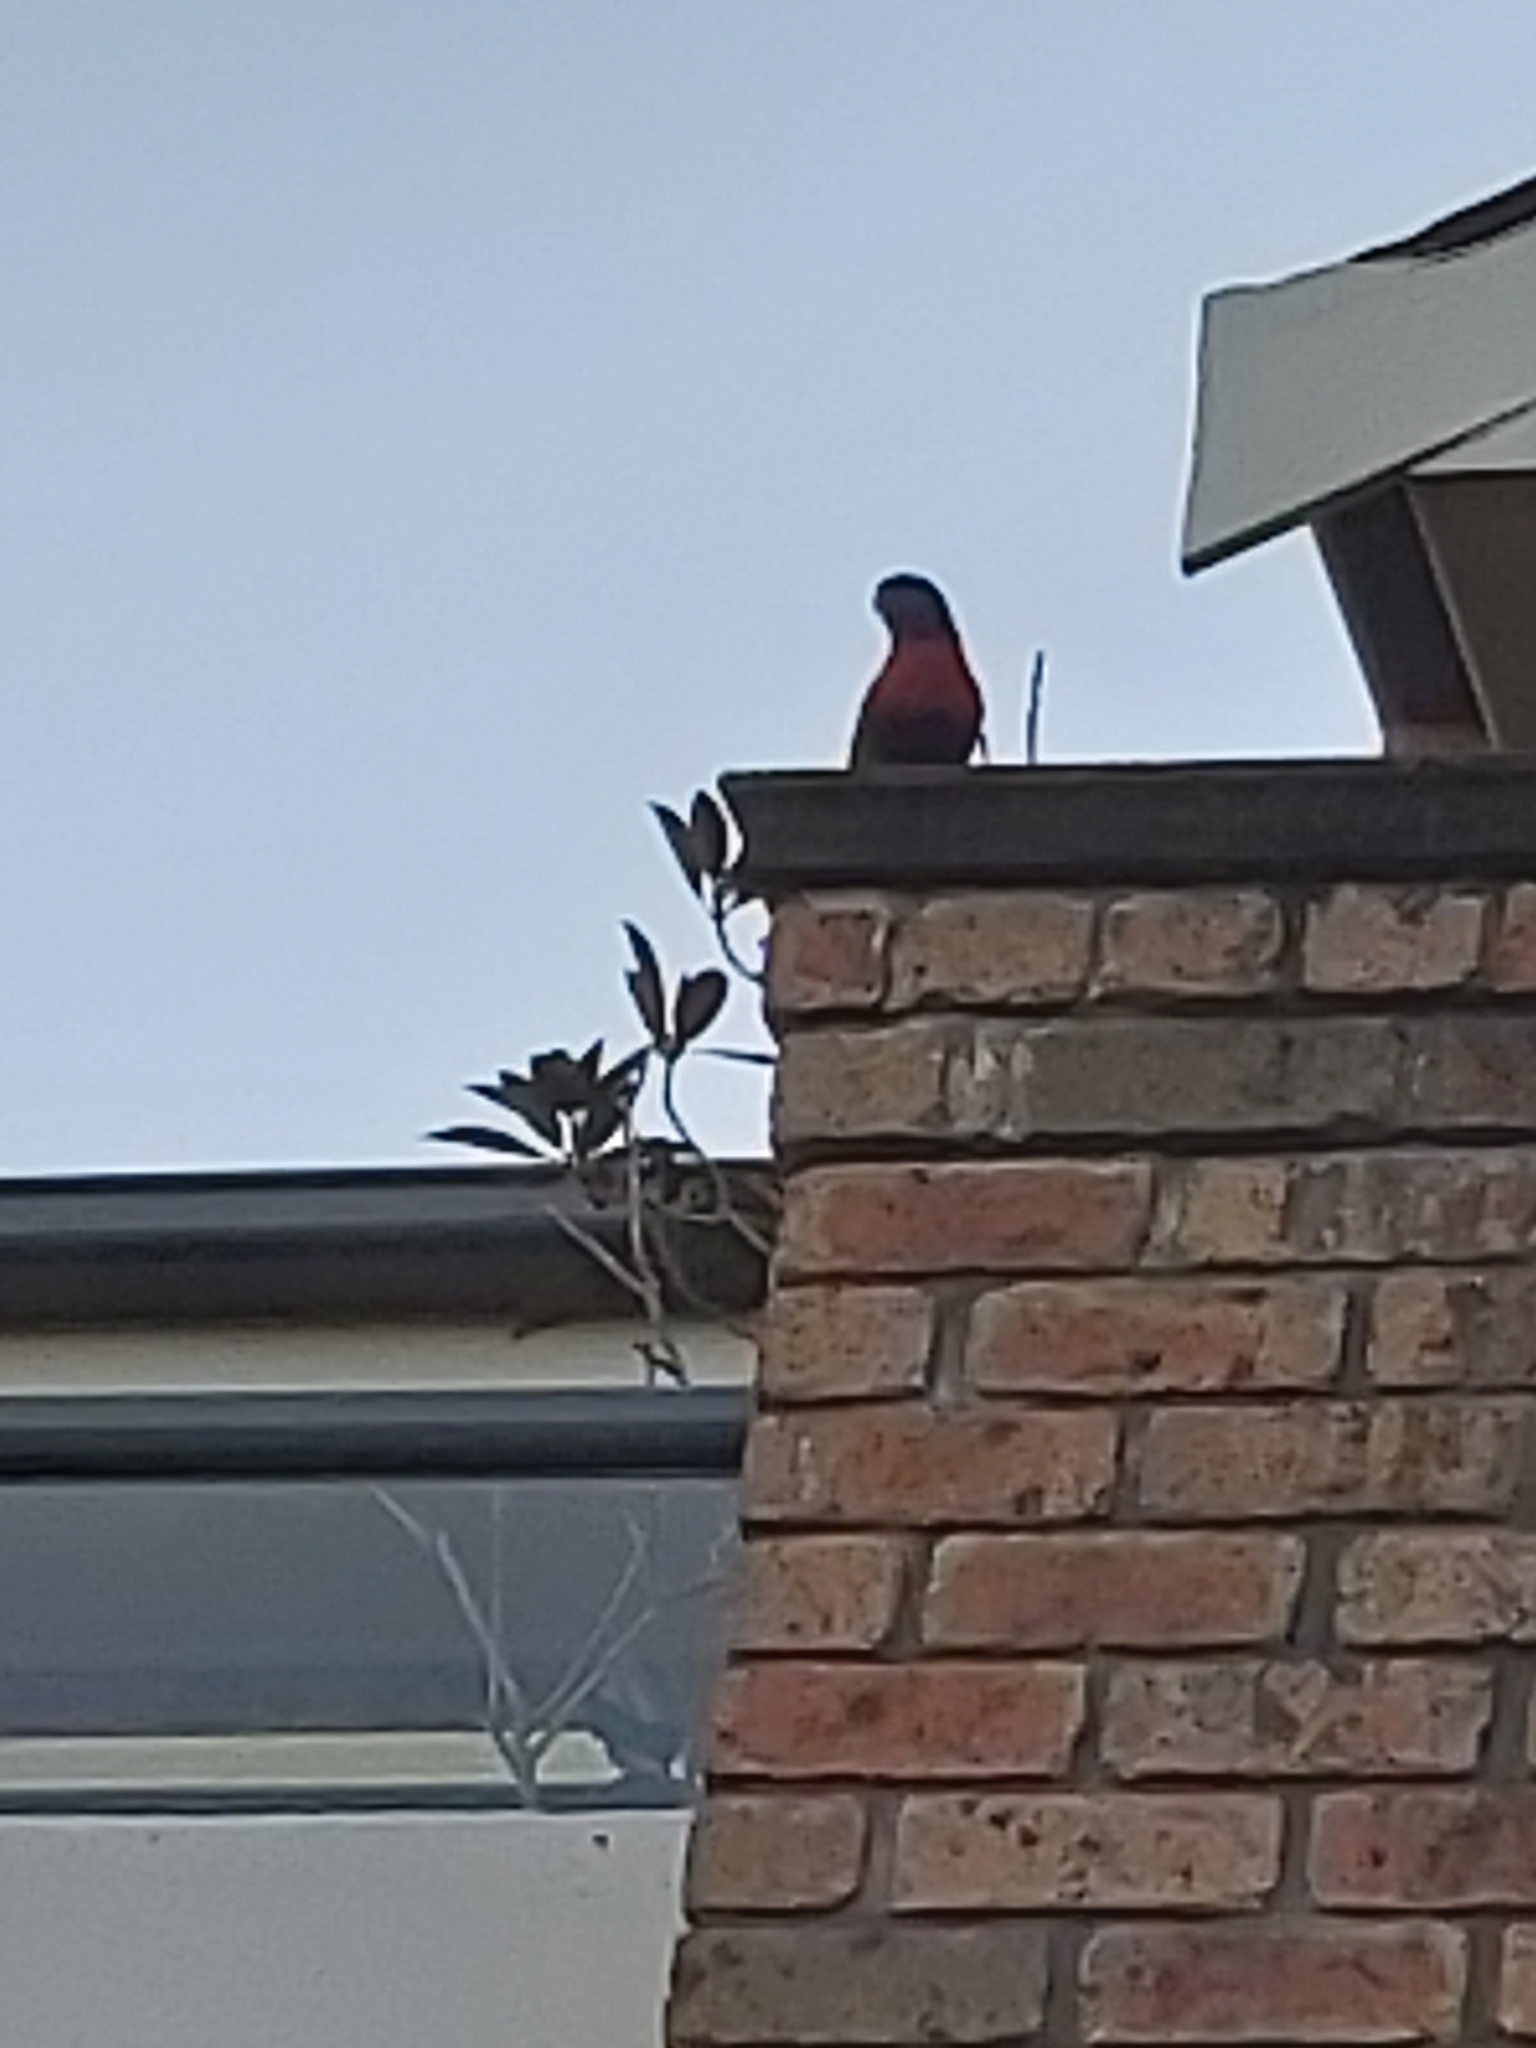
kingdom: Animalia
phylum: Chordata
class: Aves
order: Psittaciformes
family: Psittacidae
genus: Trichoglossus
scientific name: Trichoglossus haematodus
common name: Coconut lorikeet
